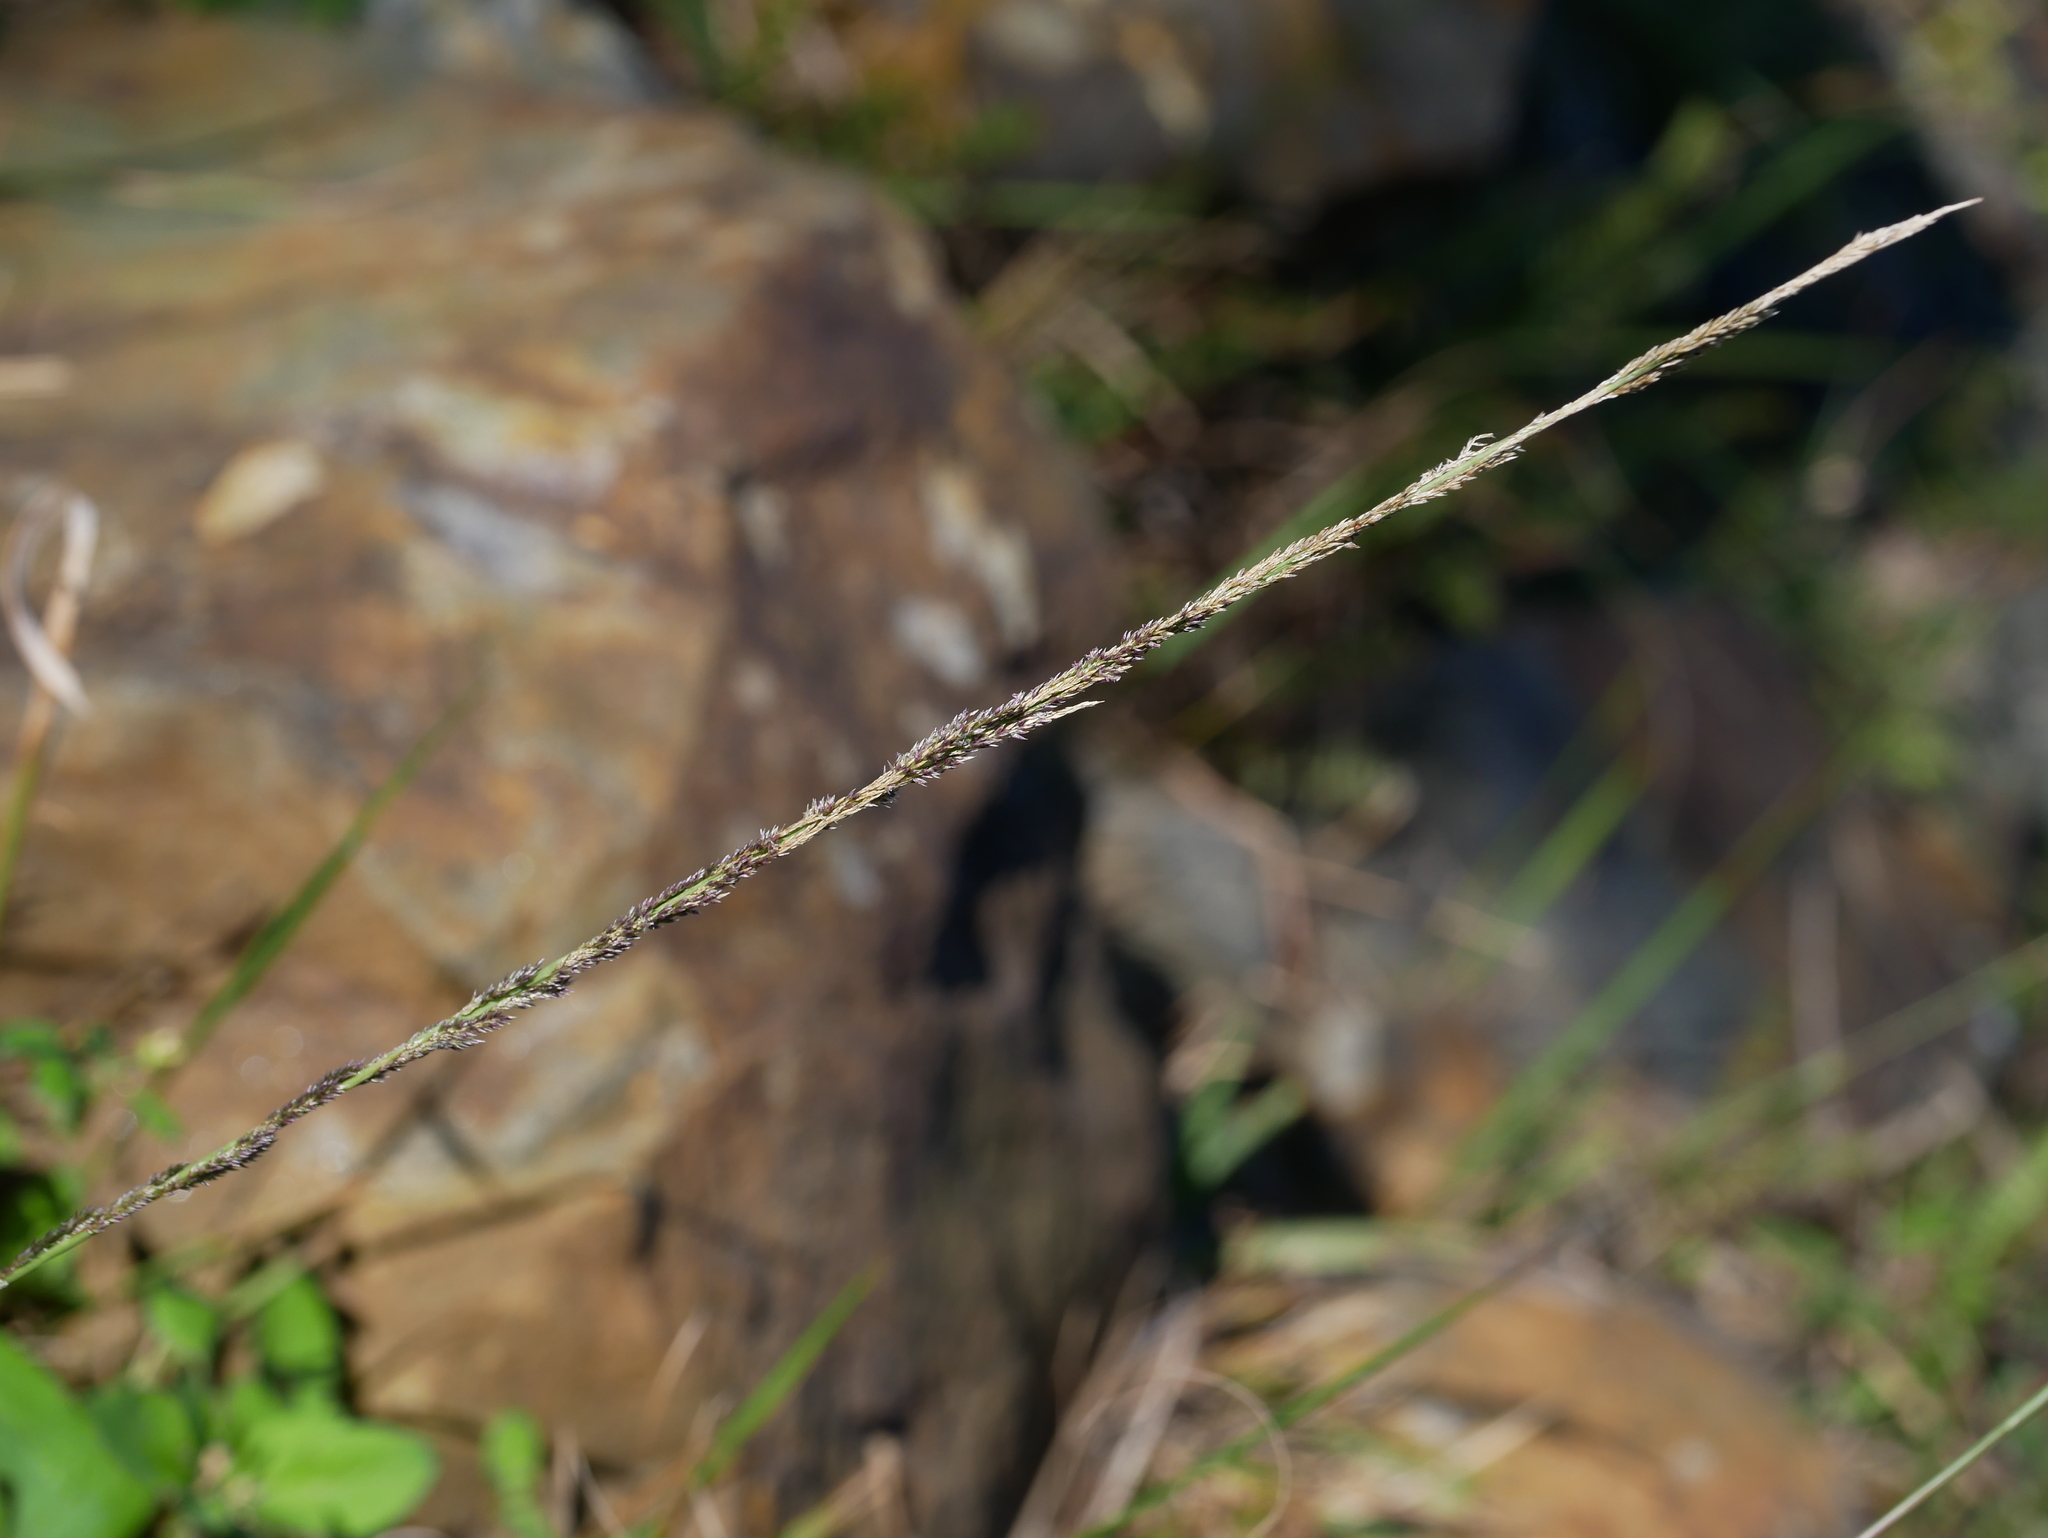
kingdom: Plantae
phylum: Tracheophyta
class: Liliopsida
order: Poales
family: Poaceae
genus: Sporobolus
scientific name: Sporobolus indicus
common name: Smut grass
